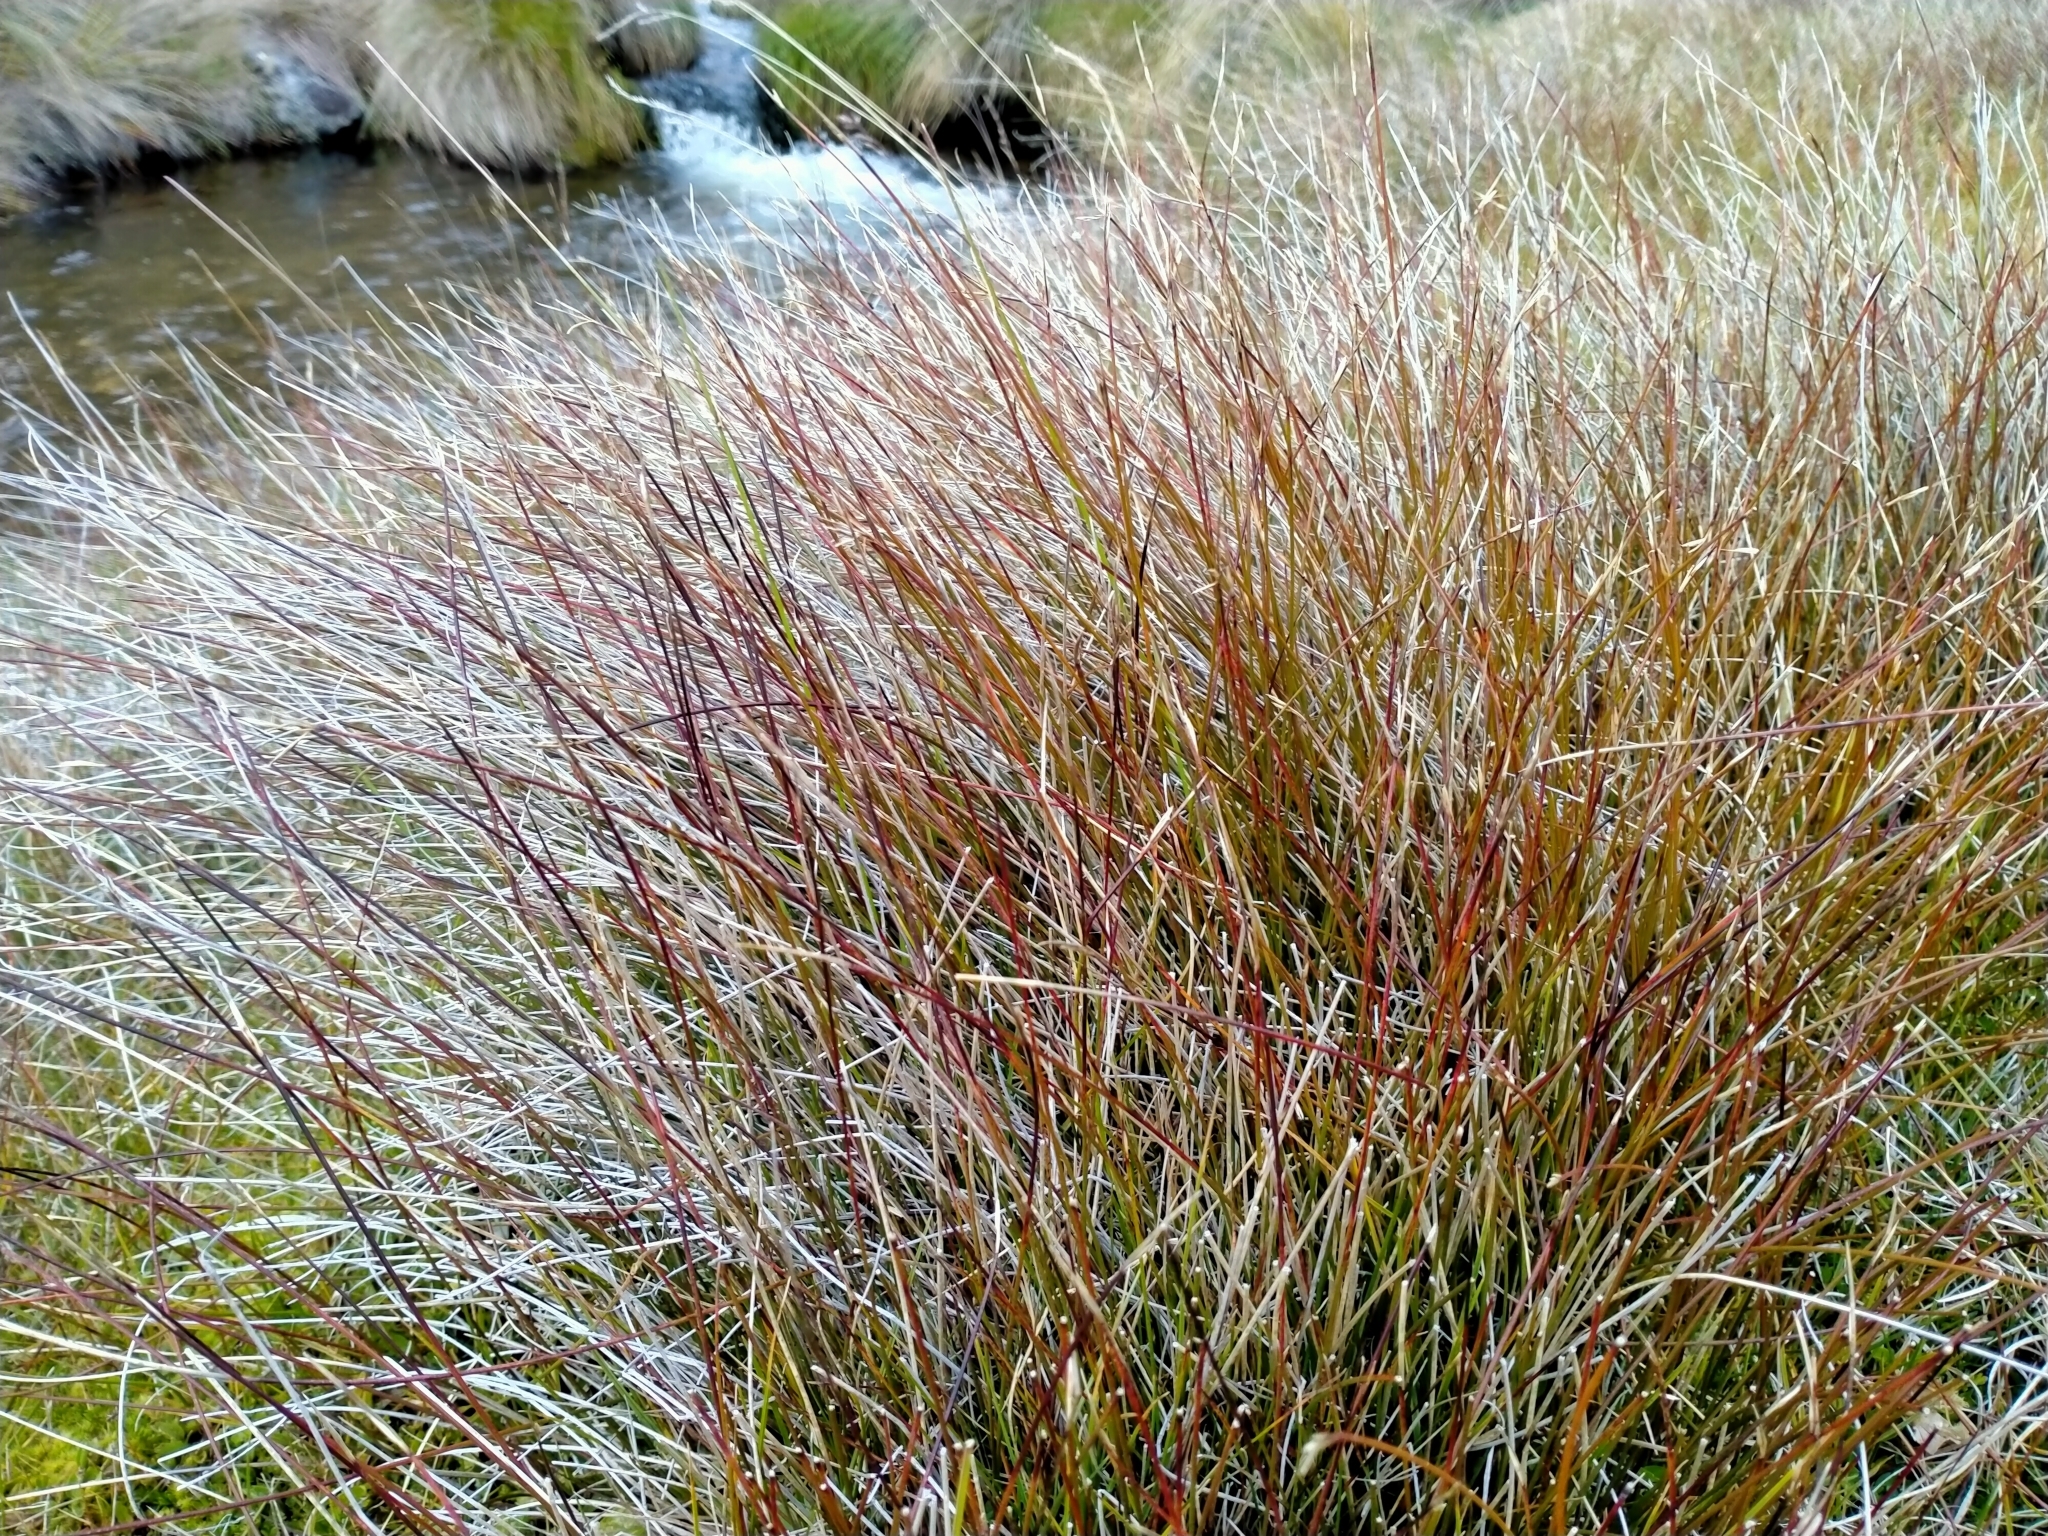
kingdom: Plantae
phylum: Tracheophyta
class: Liliopsida
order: Poales
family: Cyperaceae
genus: Schoenus
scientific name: Schoenus pauciflorus
